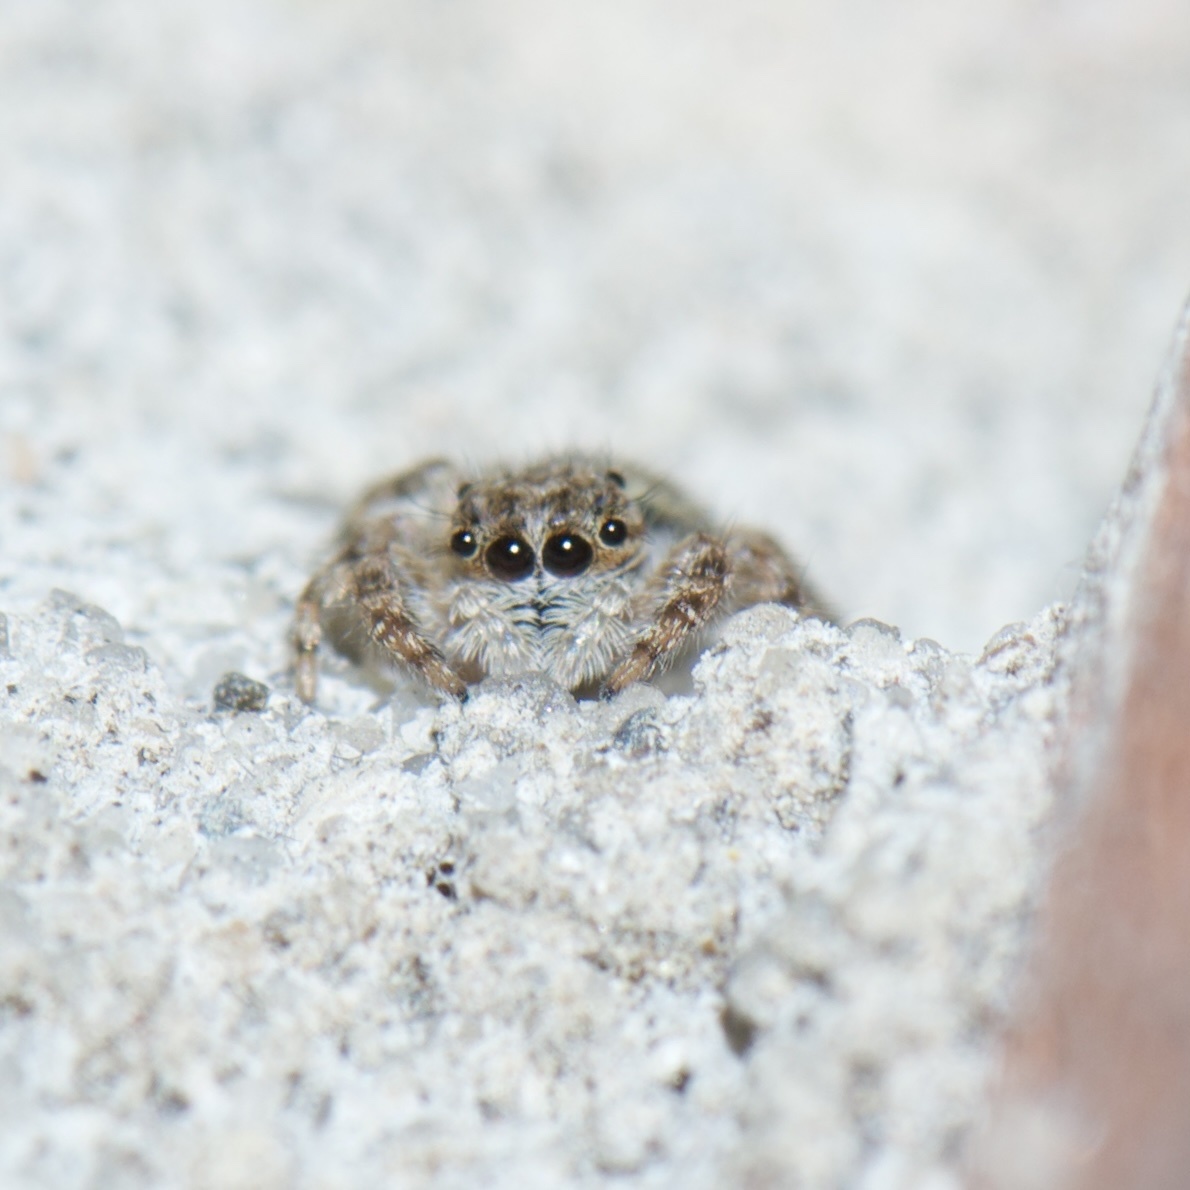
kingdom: Animalia
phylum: Arthropoda
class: Arachnida
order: Araneae
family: Salticidae
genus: Platycryptus
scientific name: Platycryptus undatus
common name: Tan jumping spider
